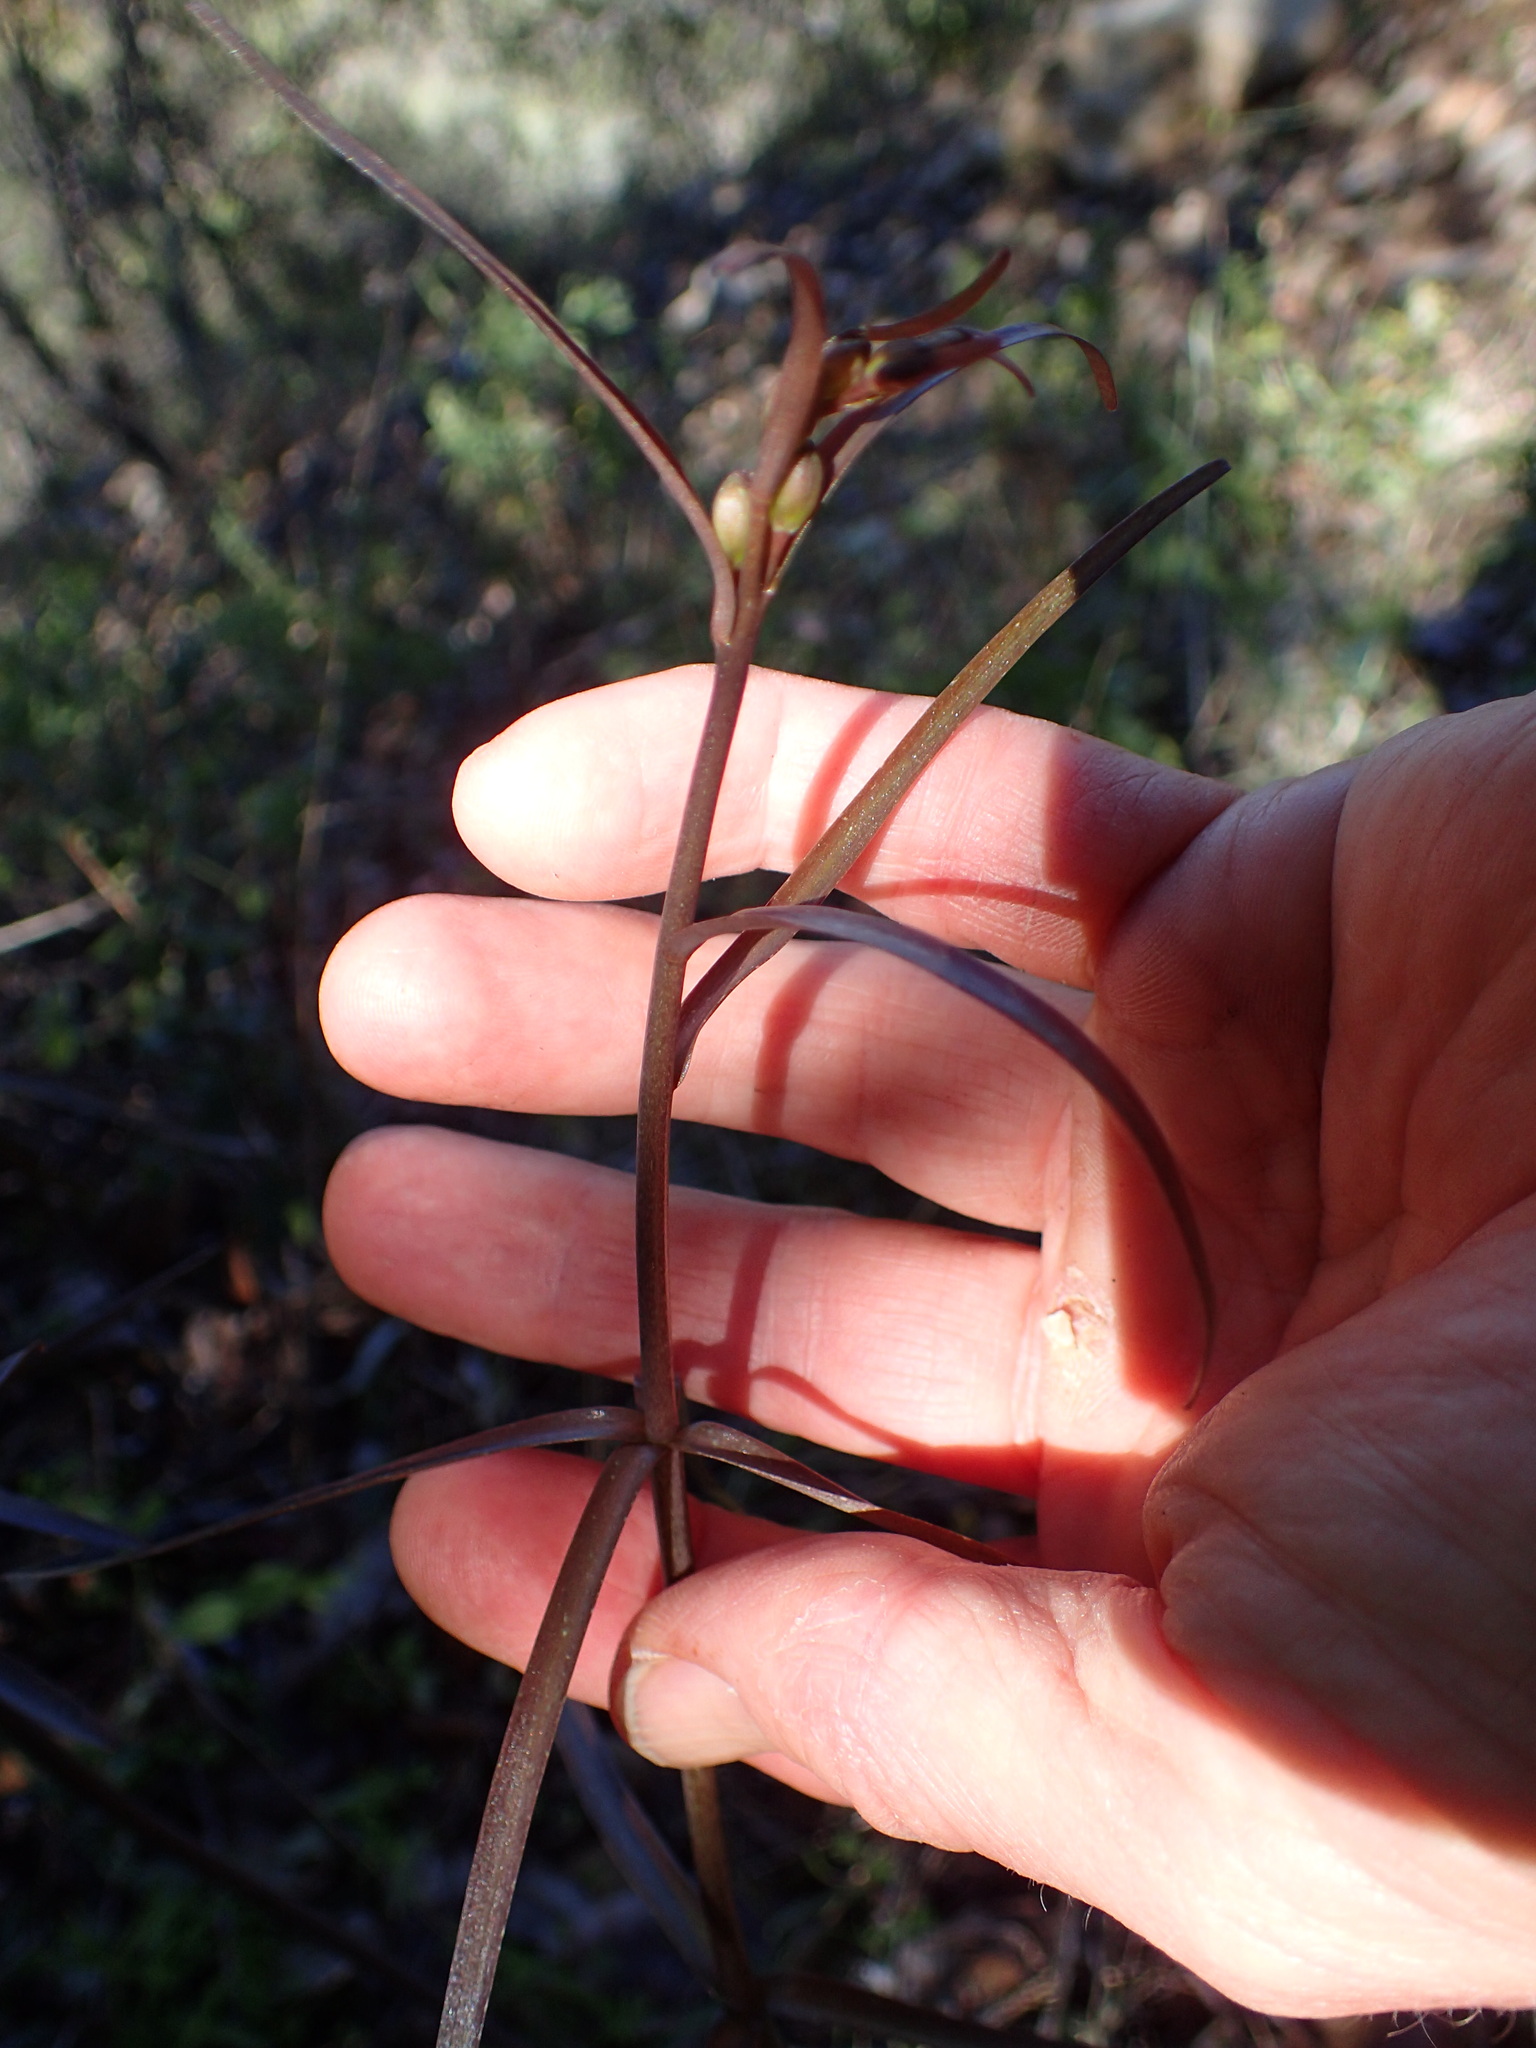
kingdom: Plantae
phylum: Tracheophyta
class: Liliopsida
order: Liliales
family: Liliaceae
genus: Fritillaria
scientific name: Fritillaria ojaiensis
